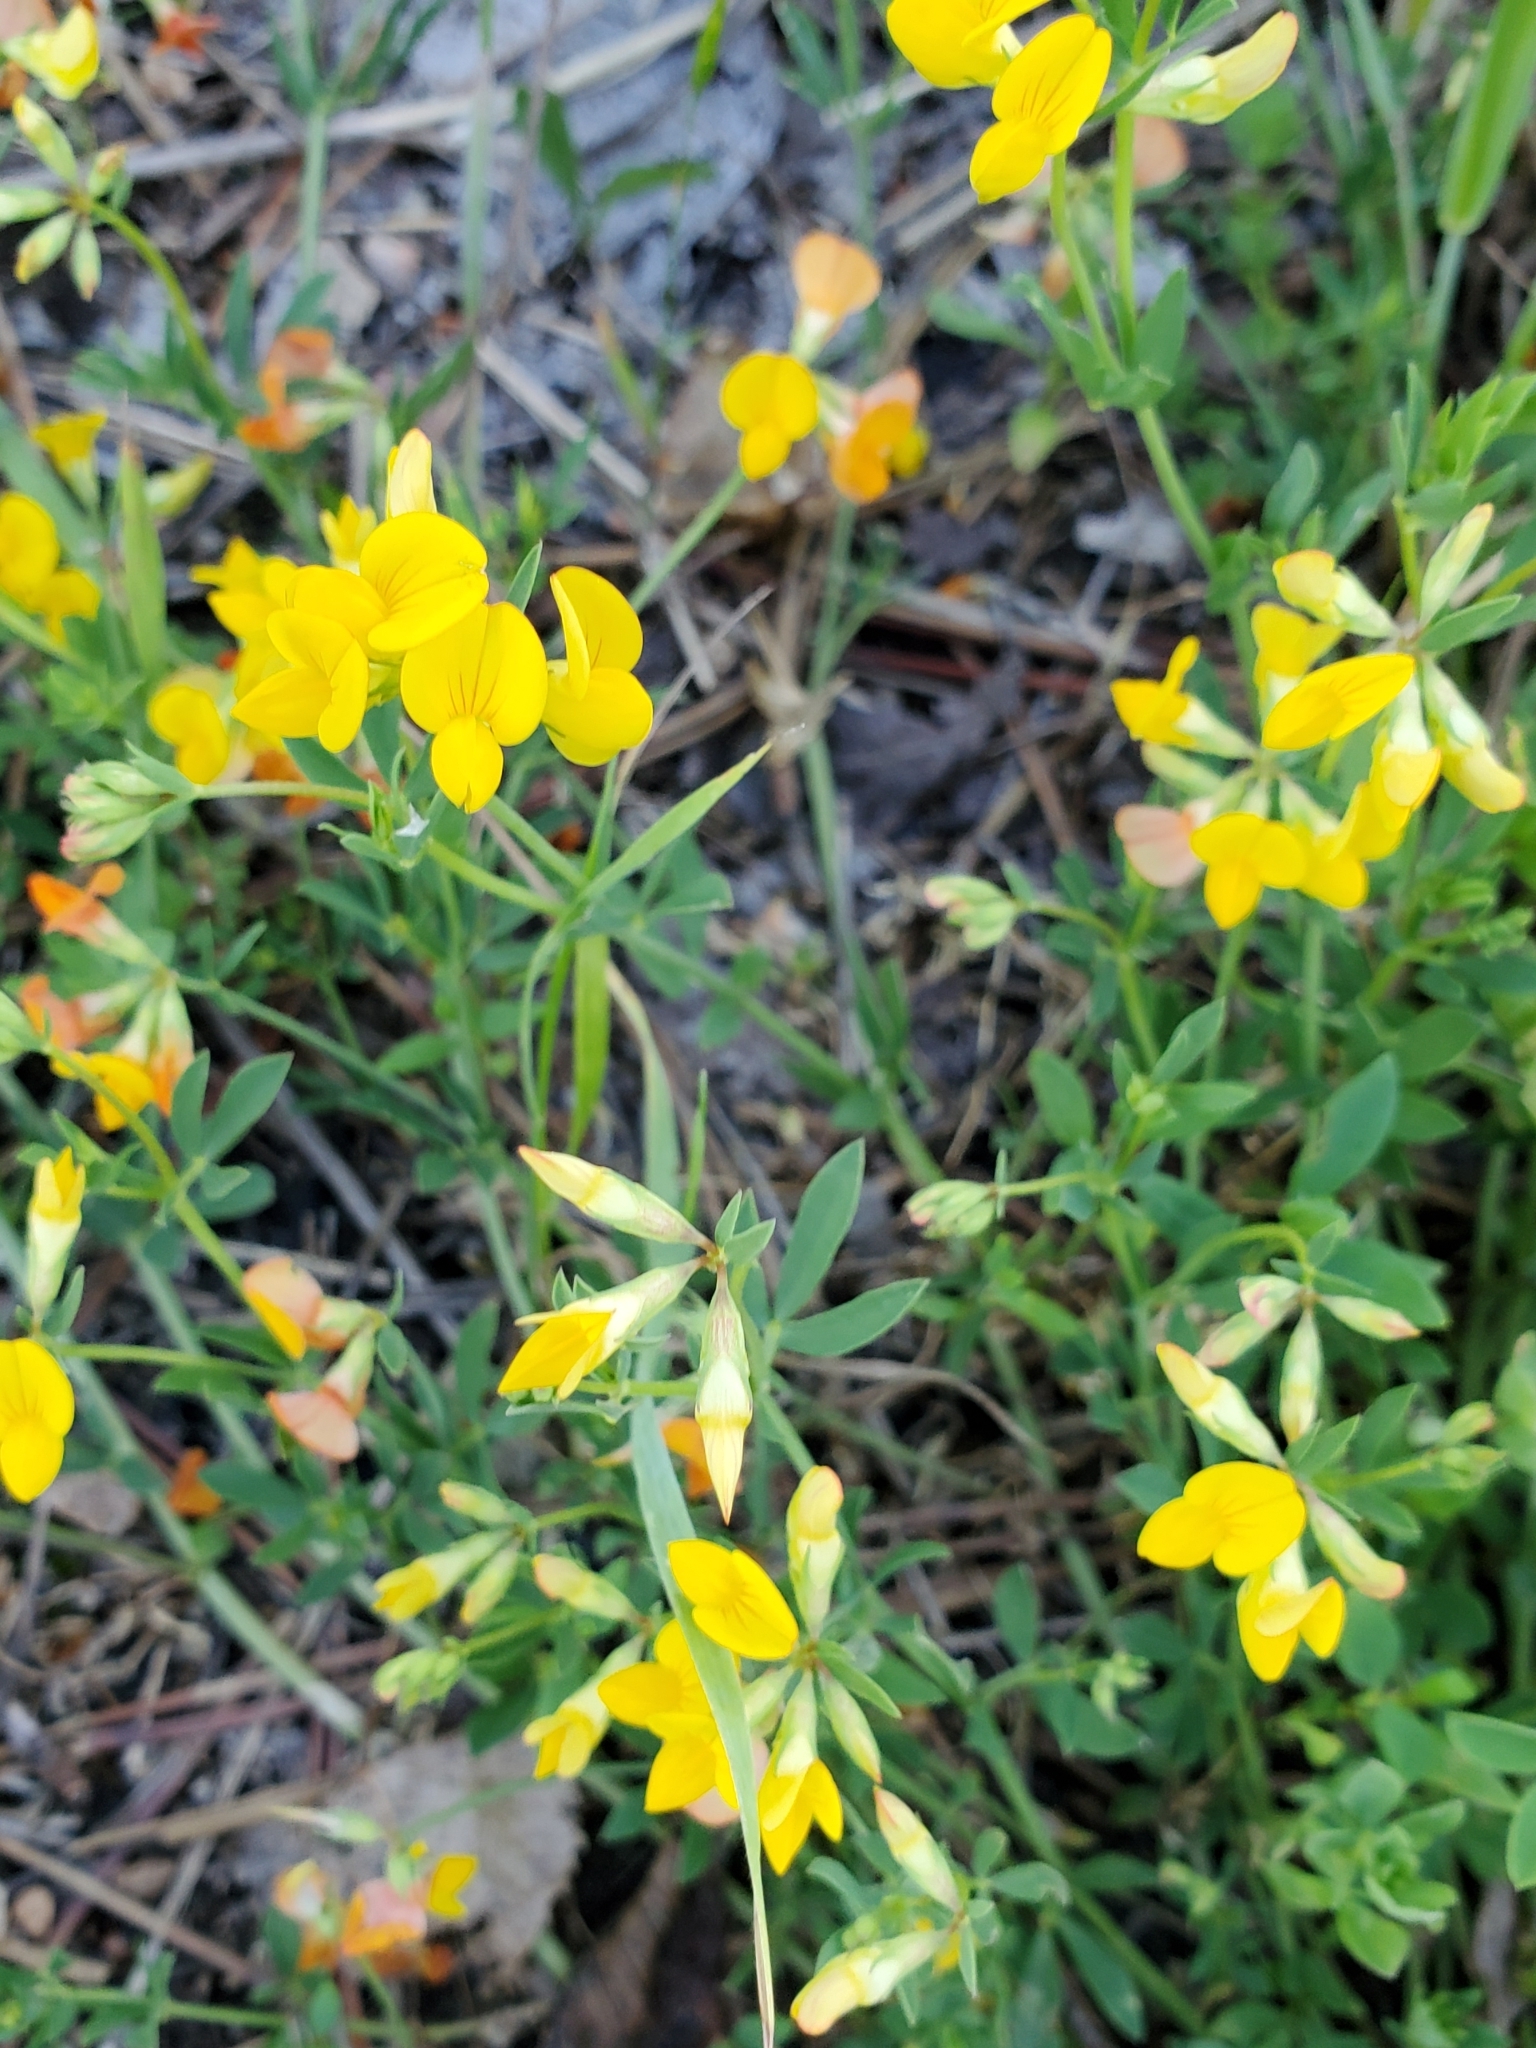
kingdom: Plantae
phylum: Tracheophyta
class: Magnoliopsida
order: Fabales
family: Fabaceae
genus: Lotus
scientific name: Lotus corniculatus
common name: Common bird's-foot-trefoil
